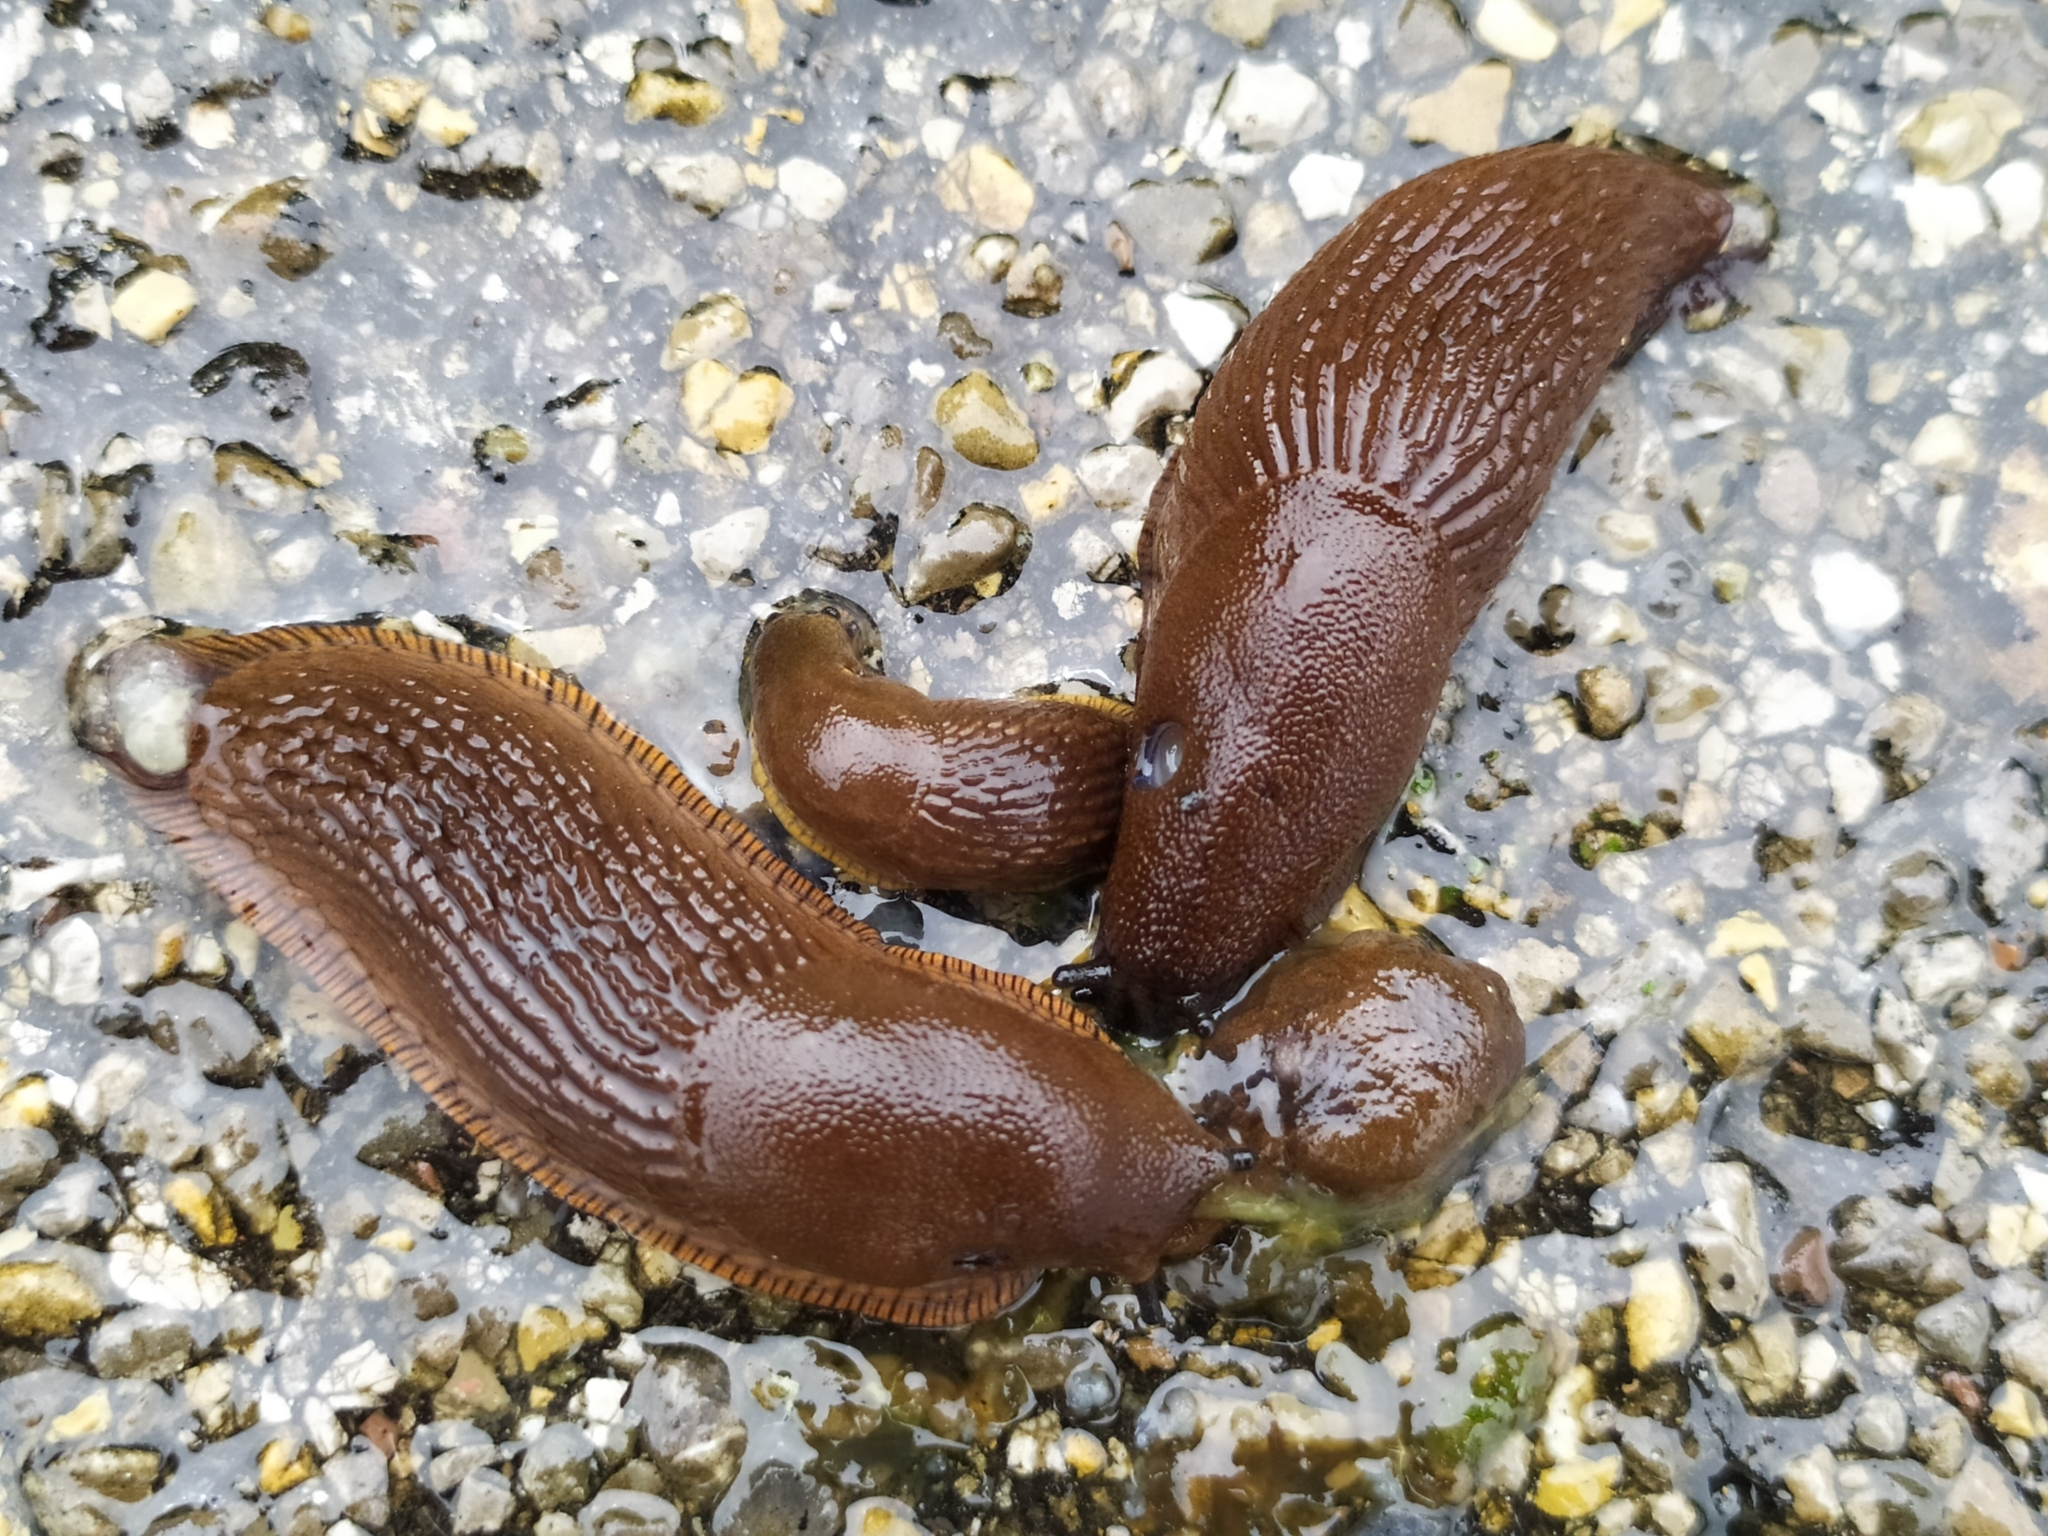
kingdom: Animalia
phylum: Mollusca
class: Gastropoda
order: Stylommatophora
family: Arionidae
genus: Arion
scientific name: Arion rufus
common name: Chocolate arion
